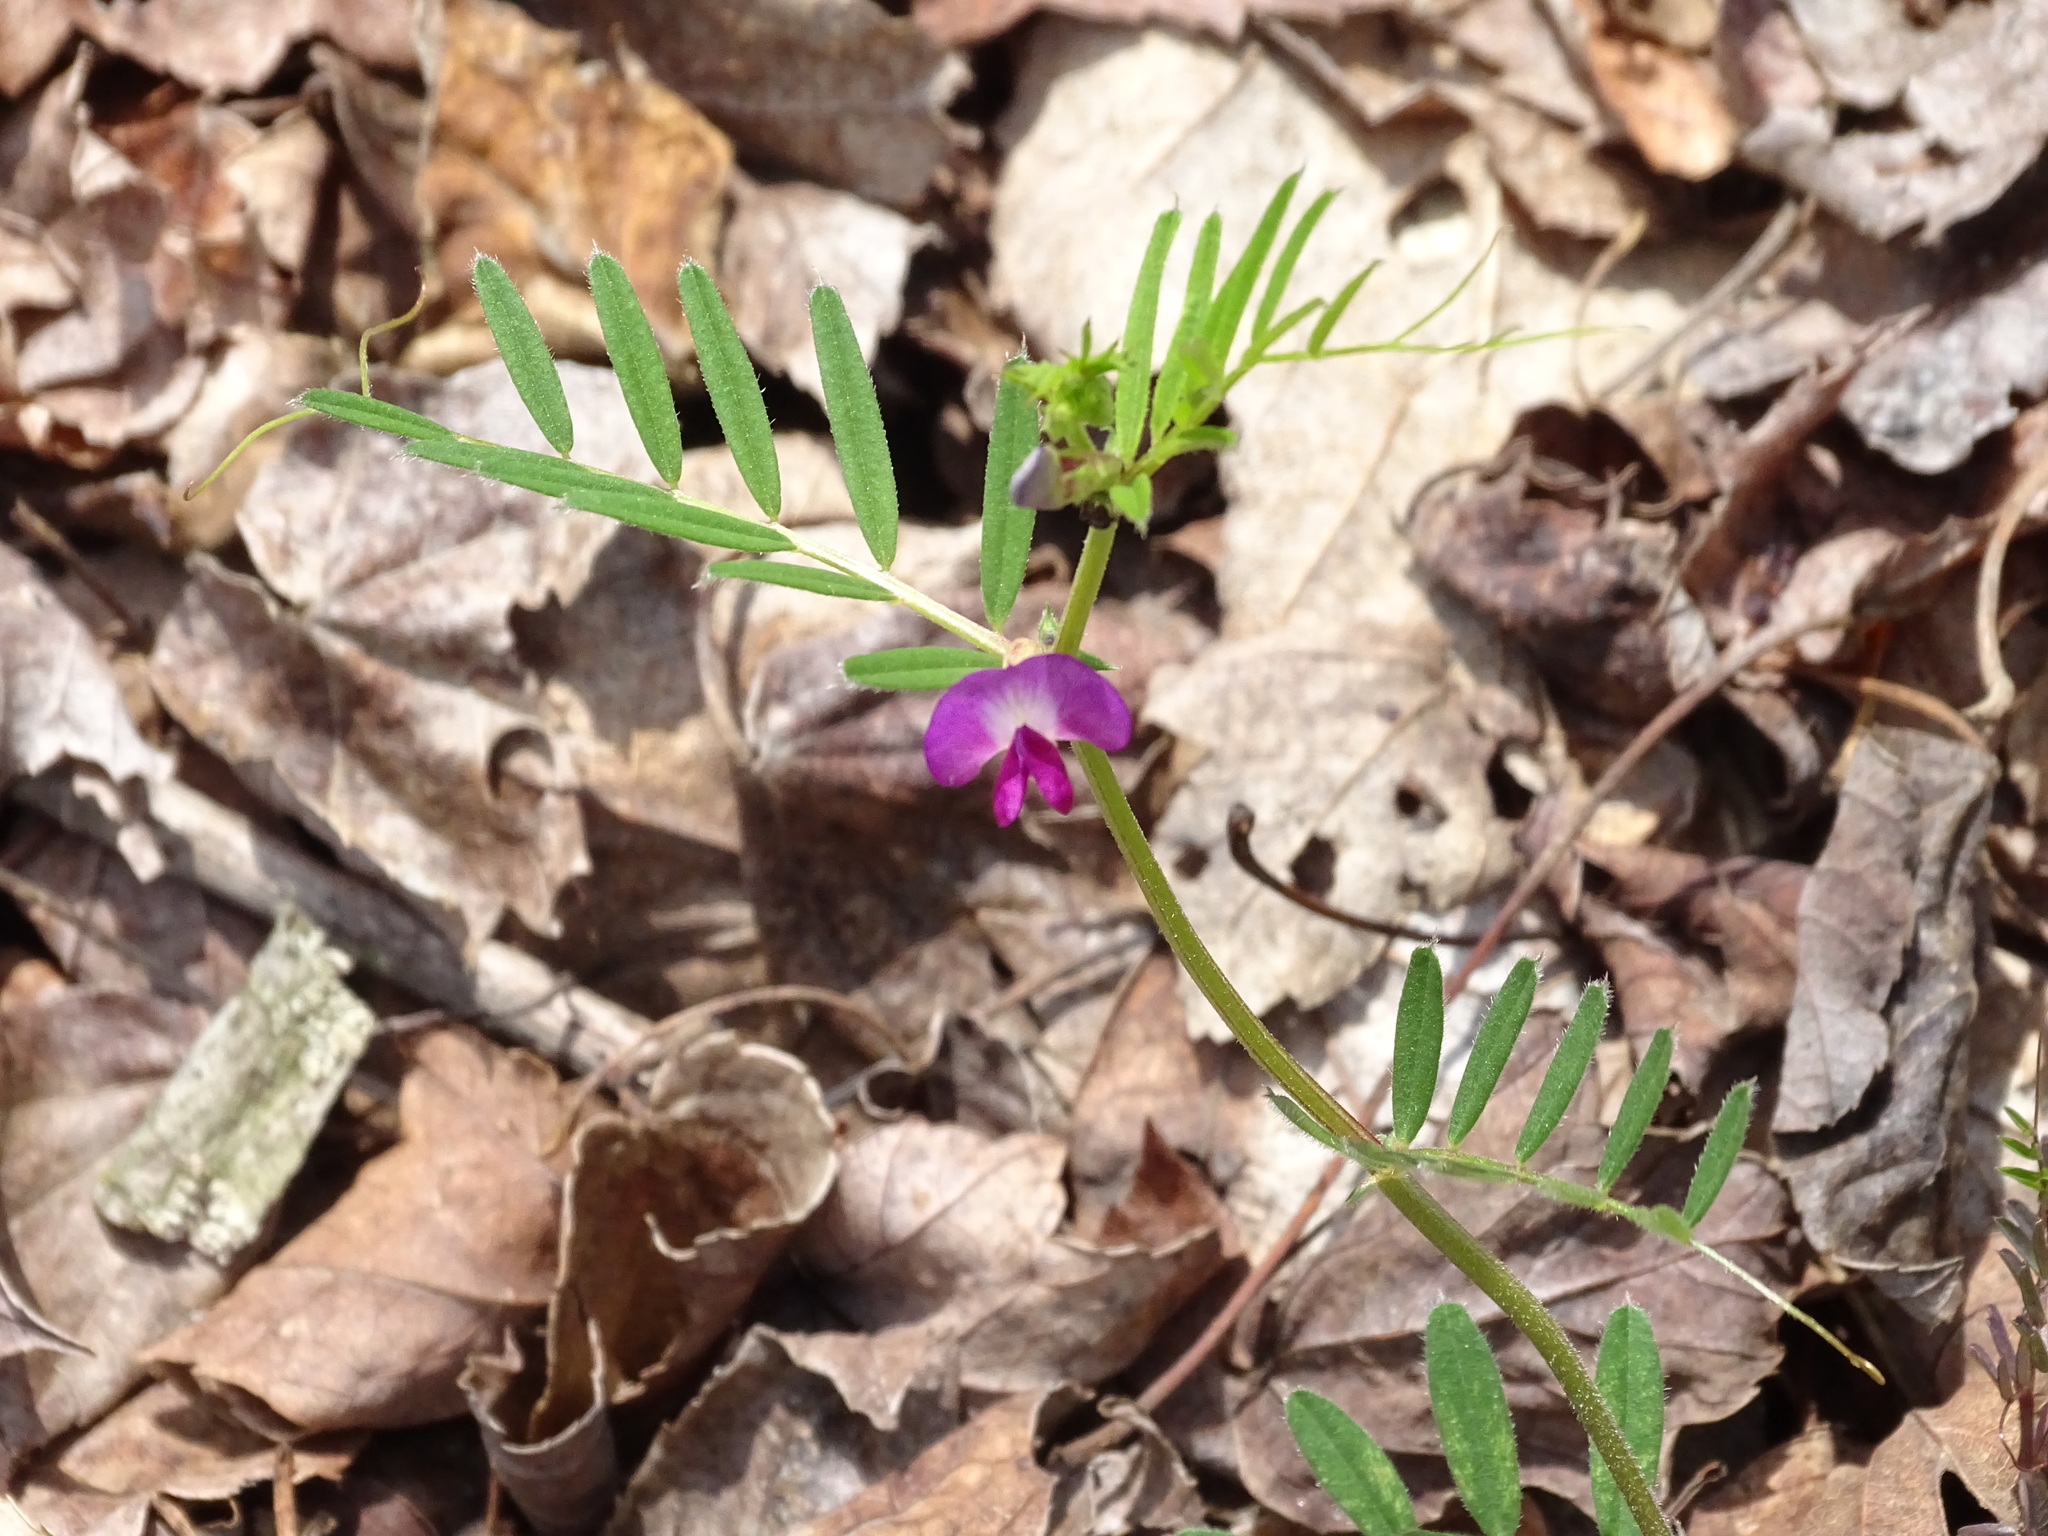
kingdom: Plantae
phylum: Tracheophyta
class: Magnoliopsida
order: Fabales
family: Fabaceae
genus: Vicia
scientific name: Vicia sativa
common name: Garden vetch
